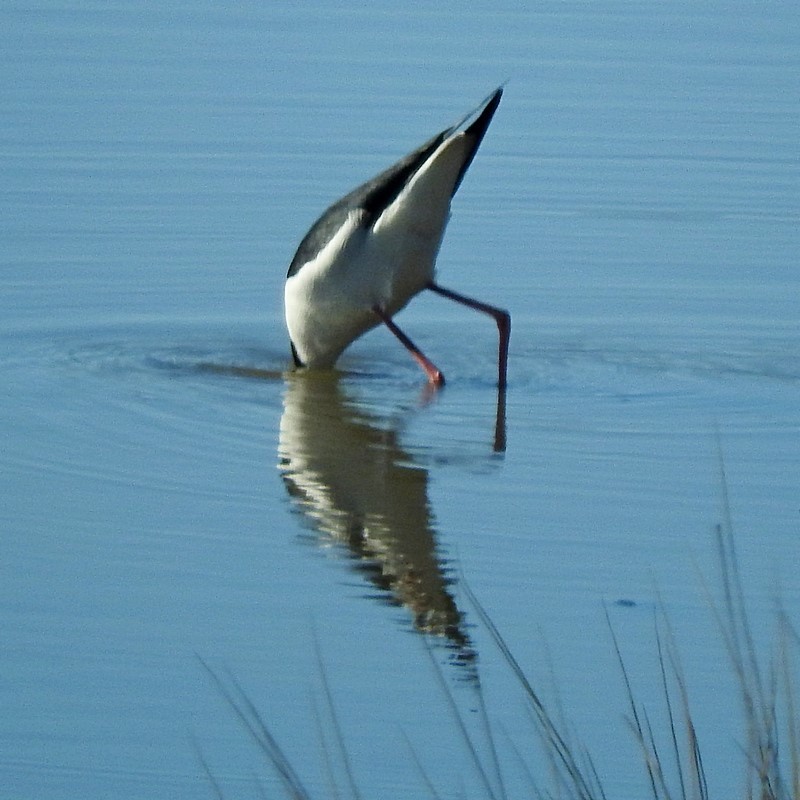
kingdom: Animalia
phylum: Chordata
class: Aves
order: Charadriiformes
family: Recurvirostridae
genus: Himantopus
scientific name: Himantopus leucocephalus
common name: White-headed stilt
